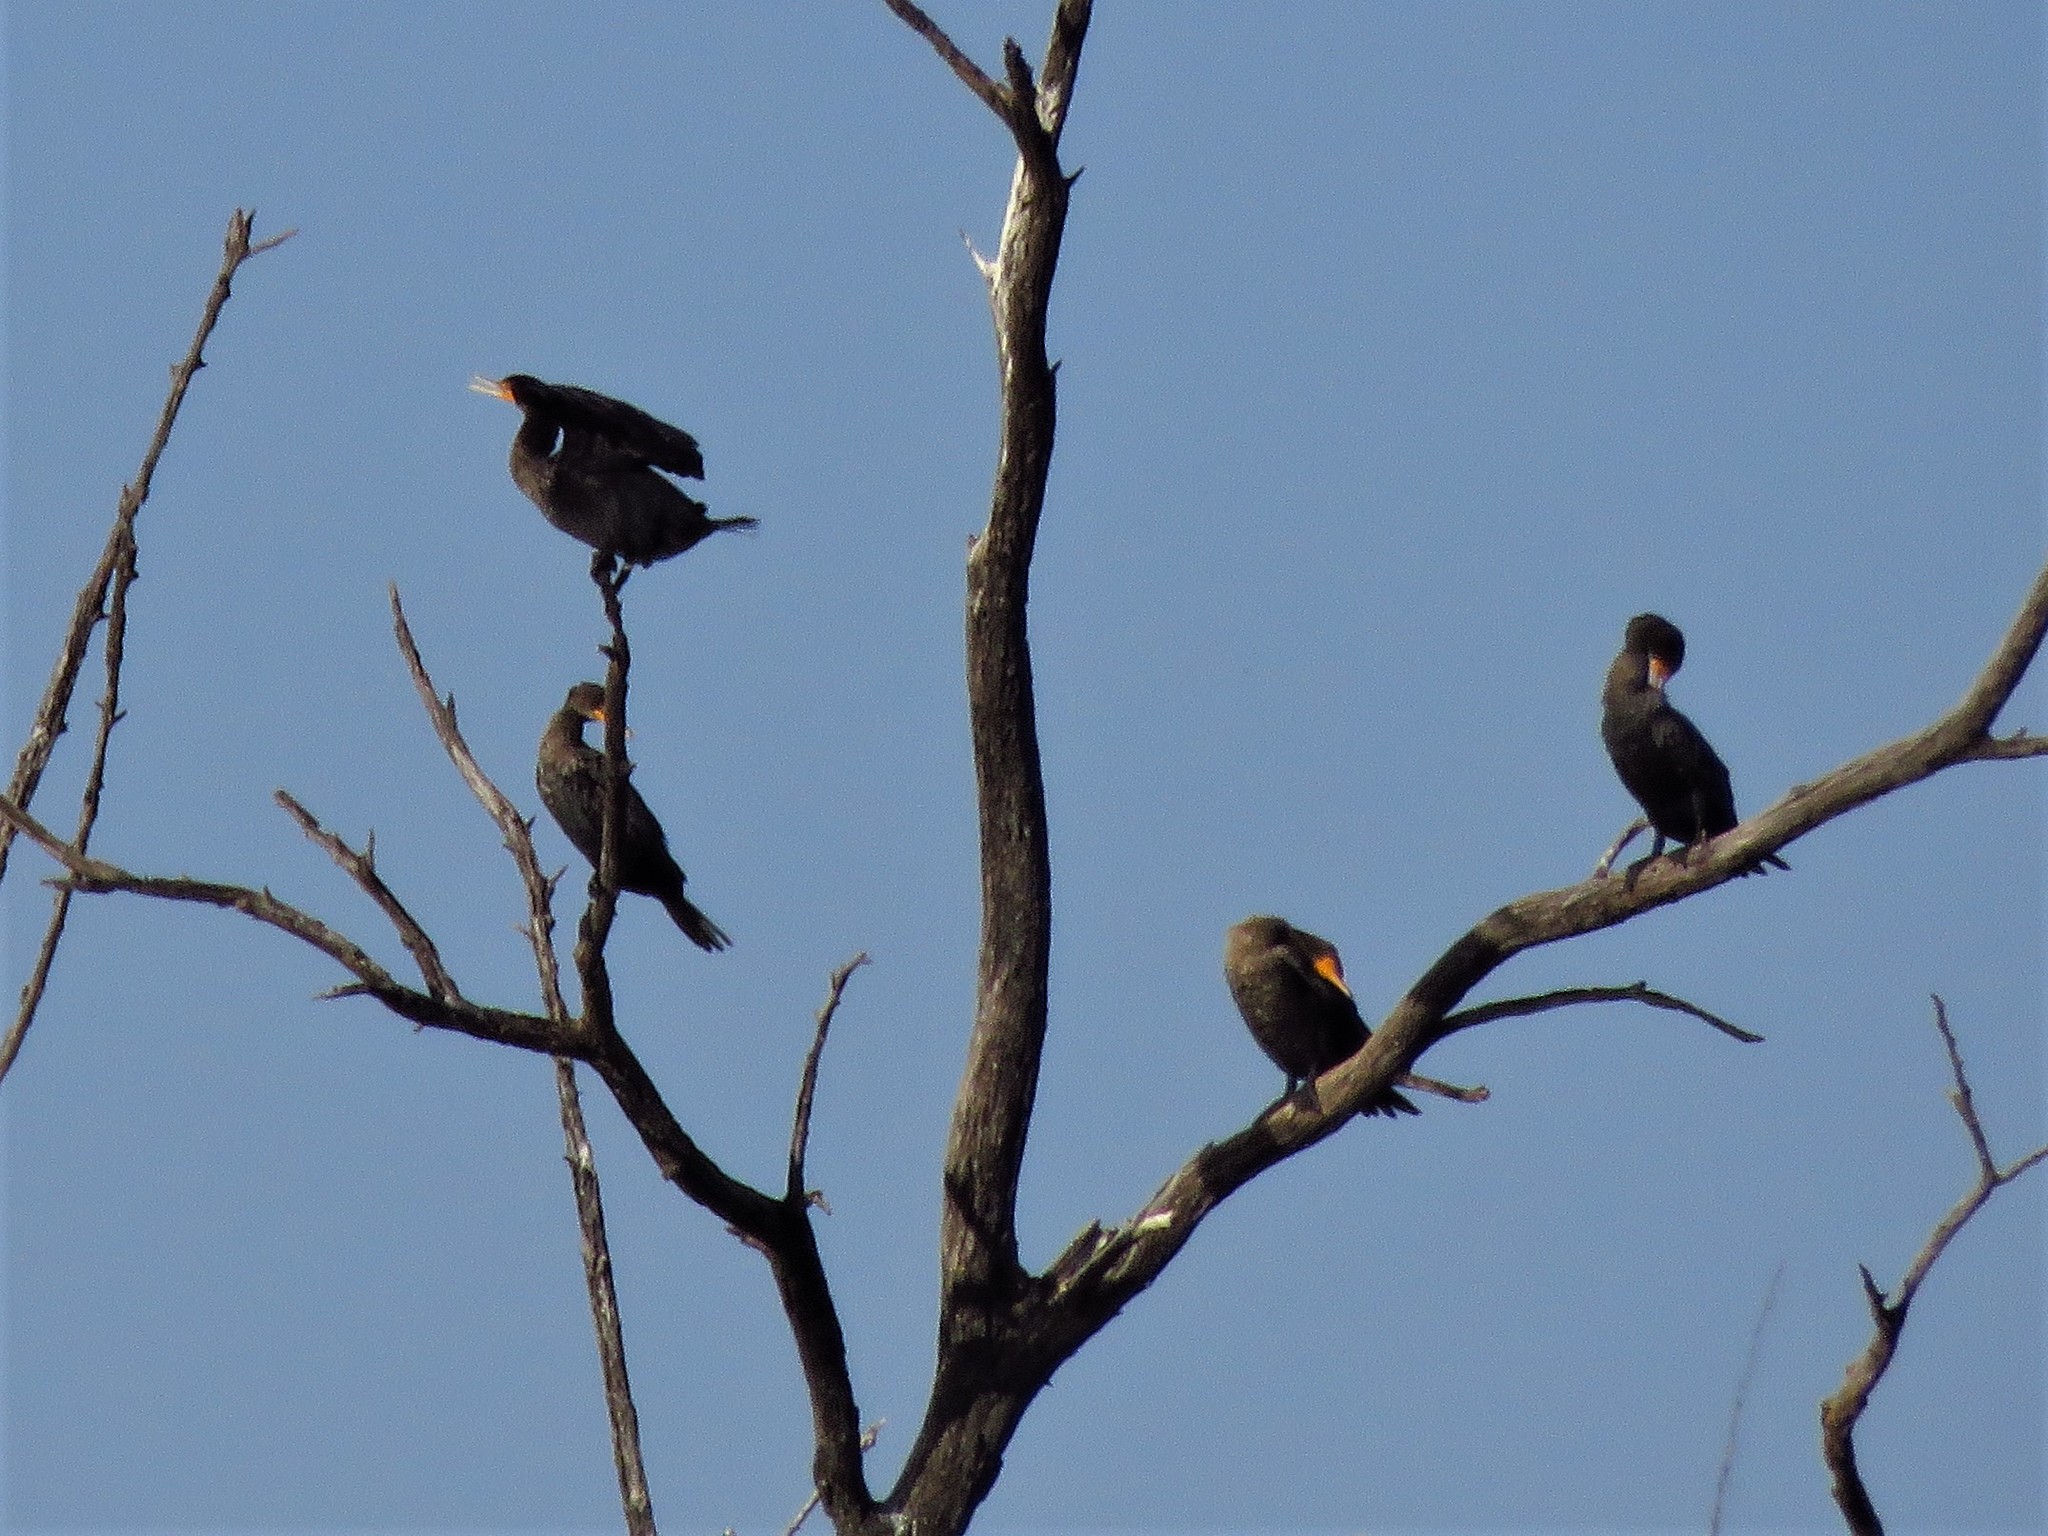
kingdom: Animalia
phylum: Chordata
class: Aves
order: Suliformes
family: Phalacrocoracidae
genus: Phalacrocorax
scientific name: Phalacrocorax auritus
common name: Double-crested cormorant
